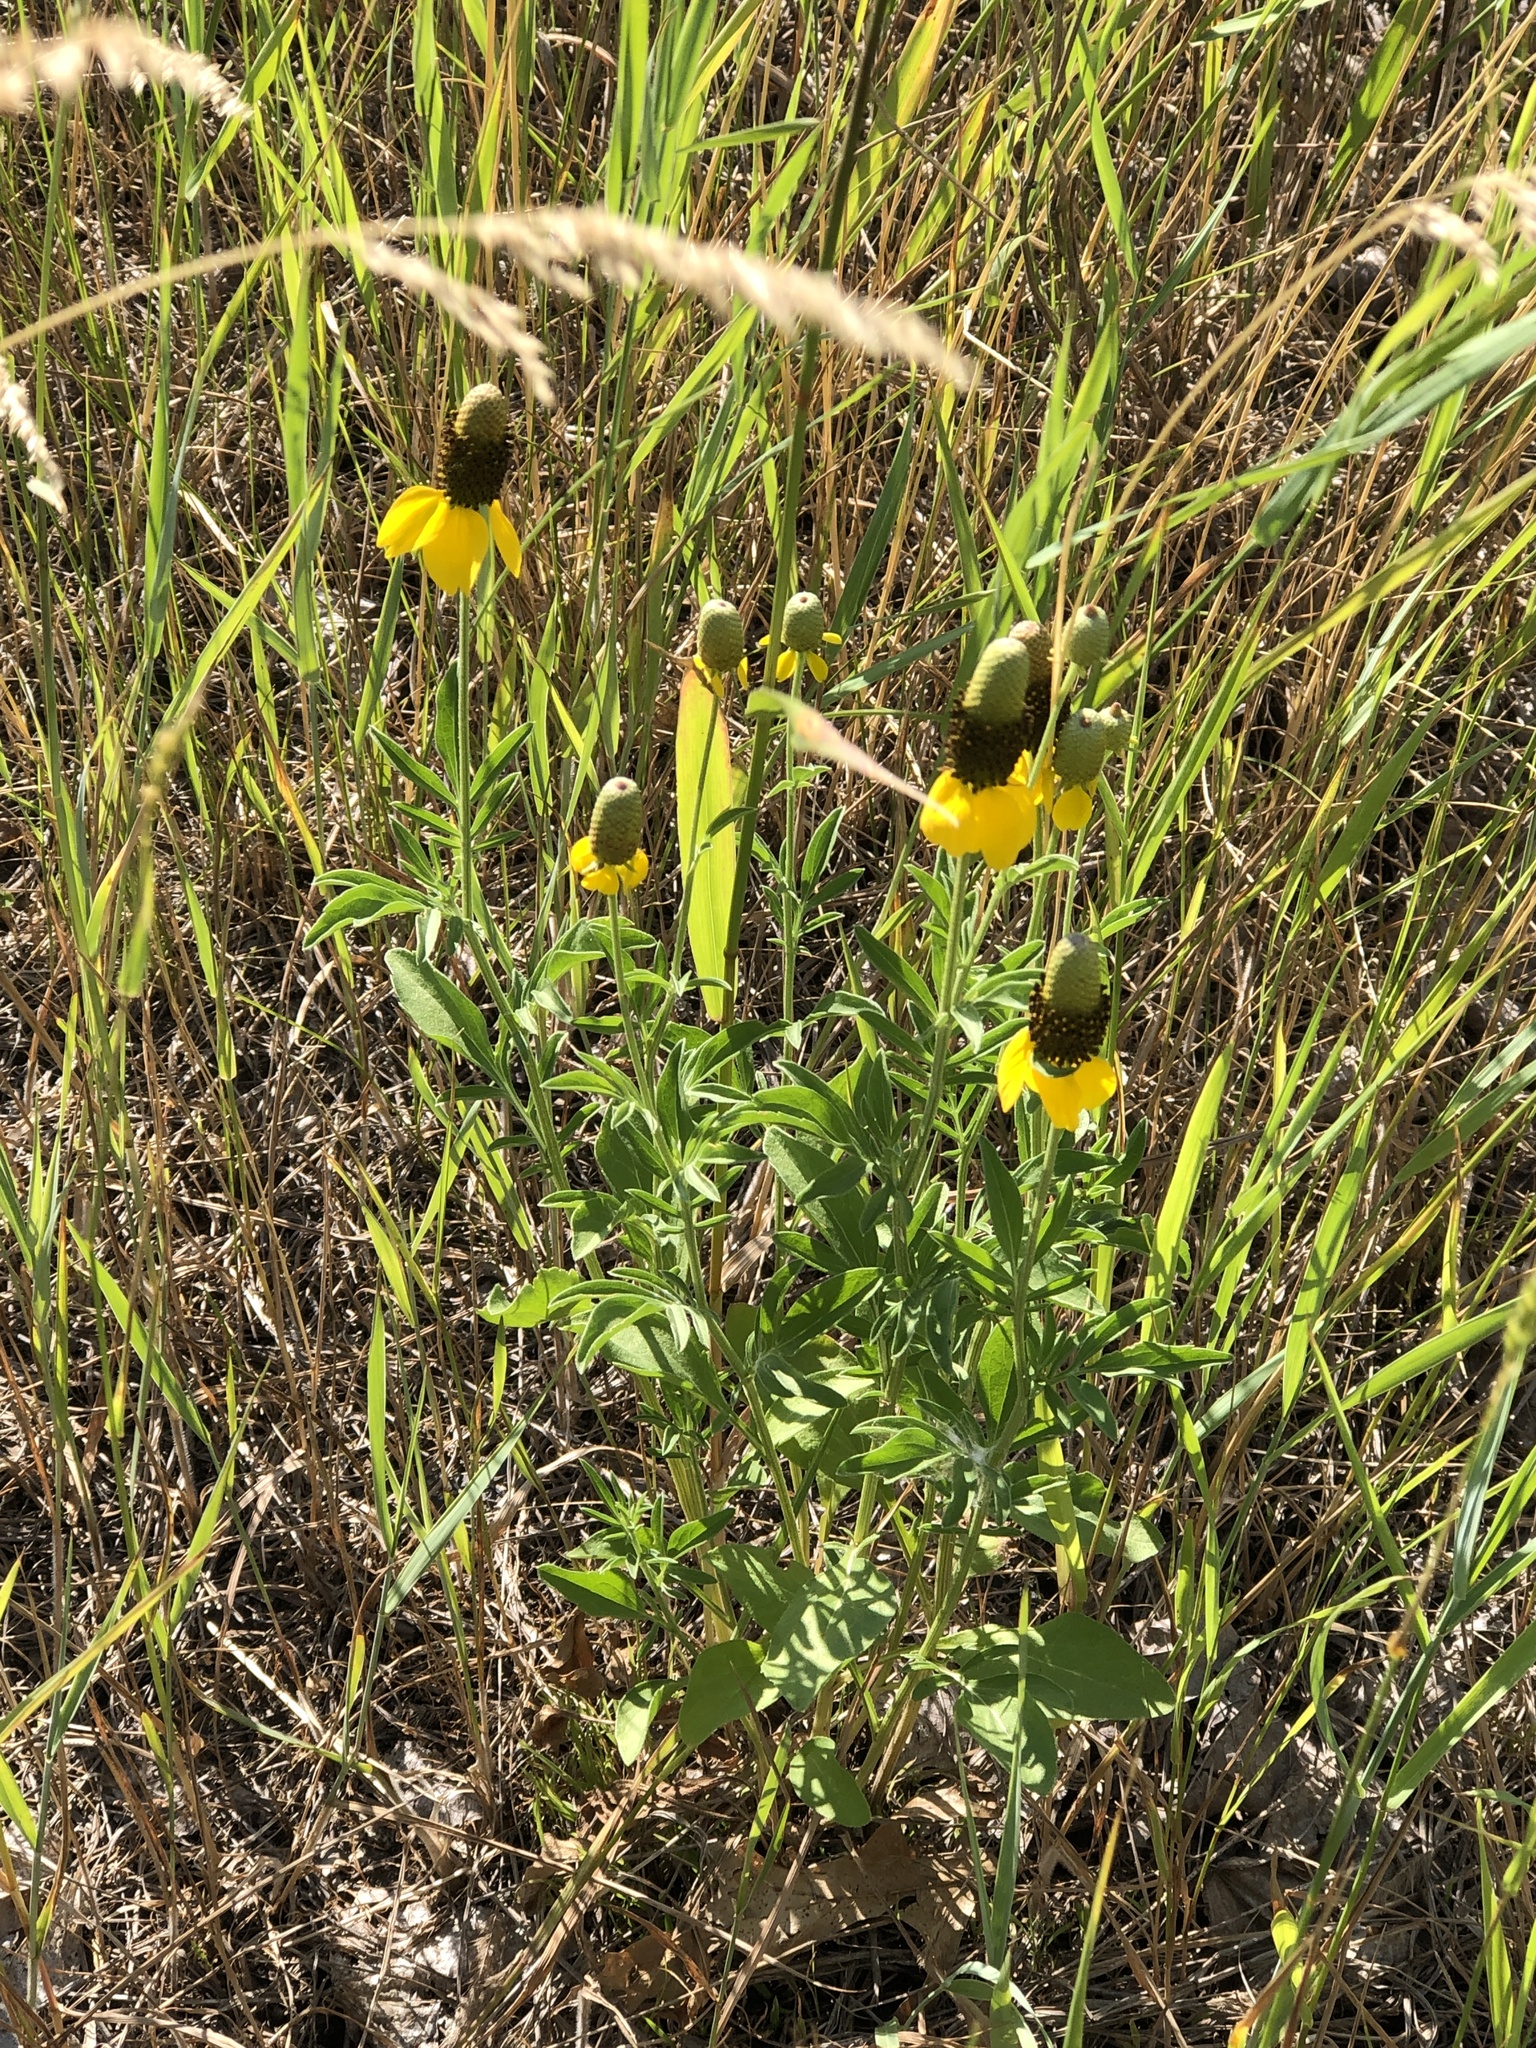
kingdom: Plantae
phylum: Tracheophyta
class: Magnoliopsida
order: Asterales
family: Asteraceae
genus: Ratibida
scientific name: Ratibida columnifera
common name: Prairie coneflower
